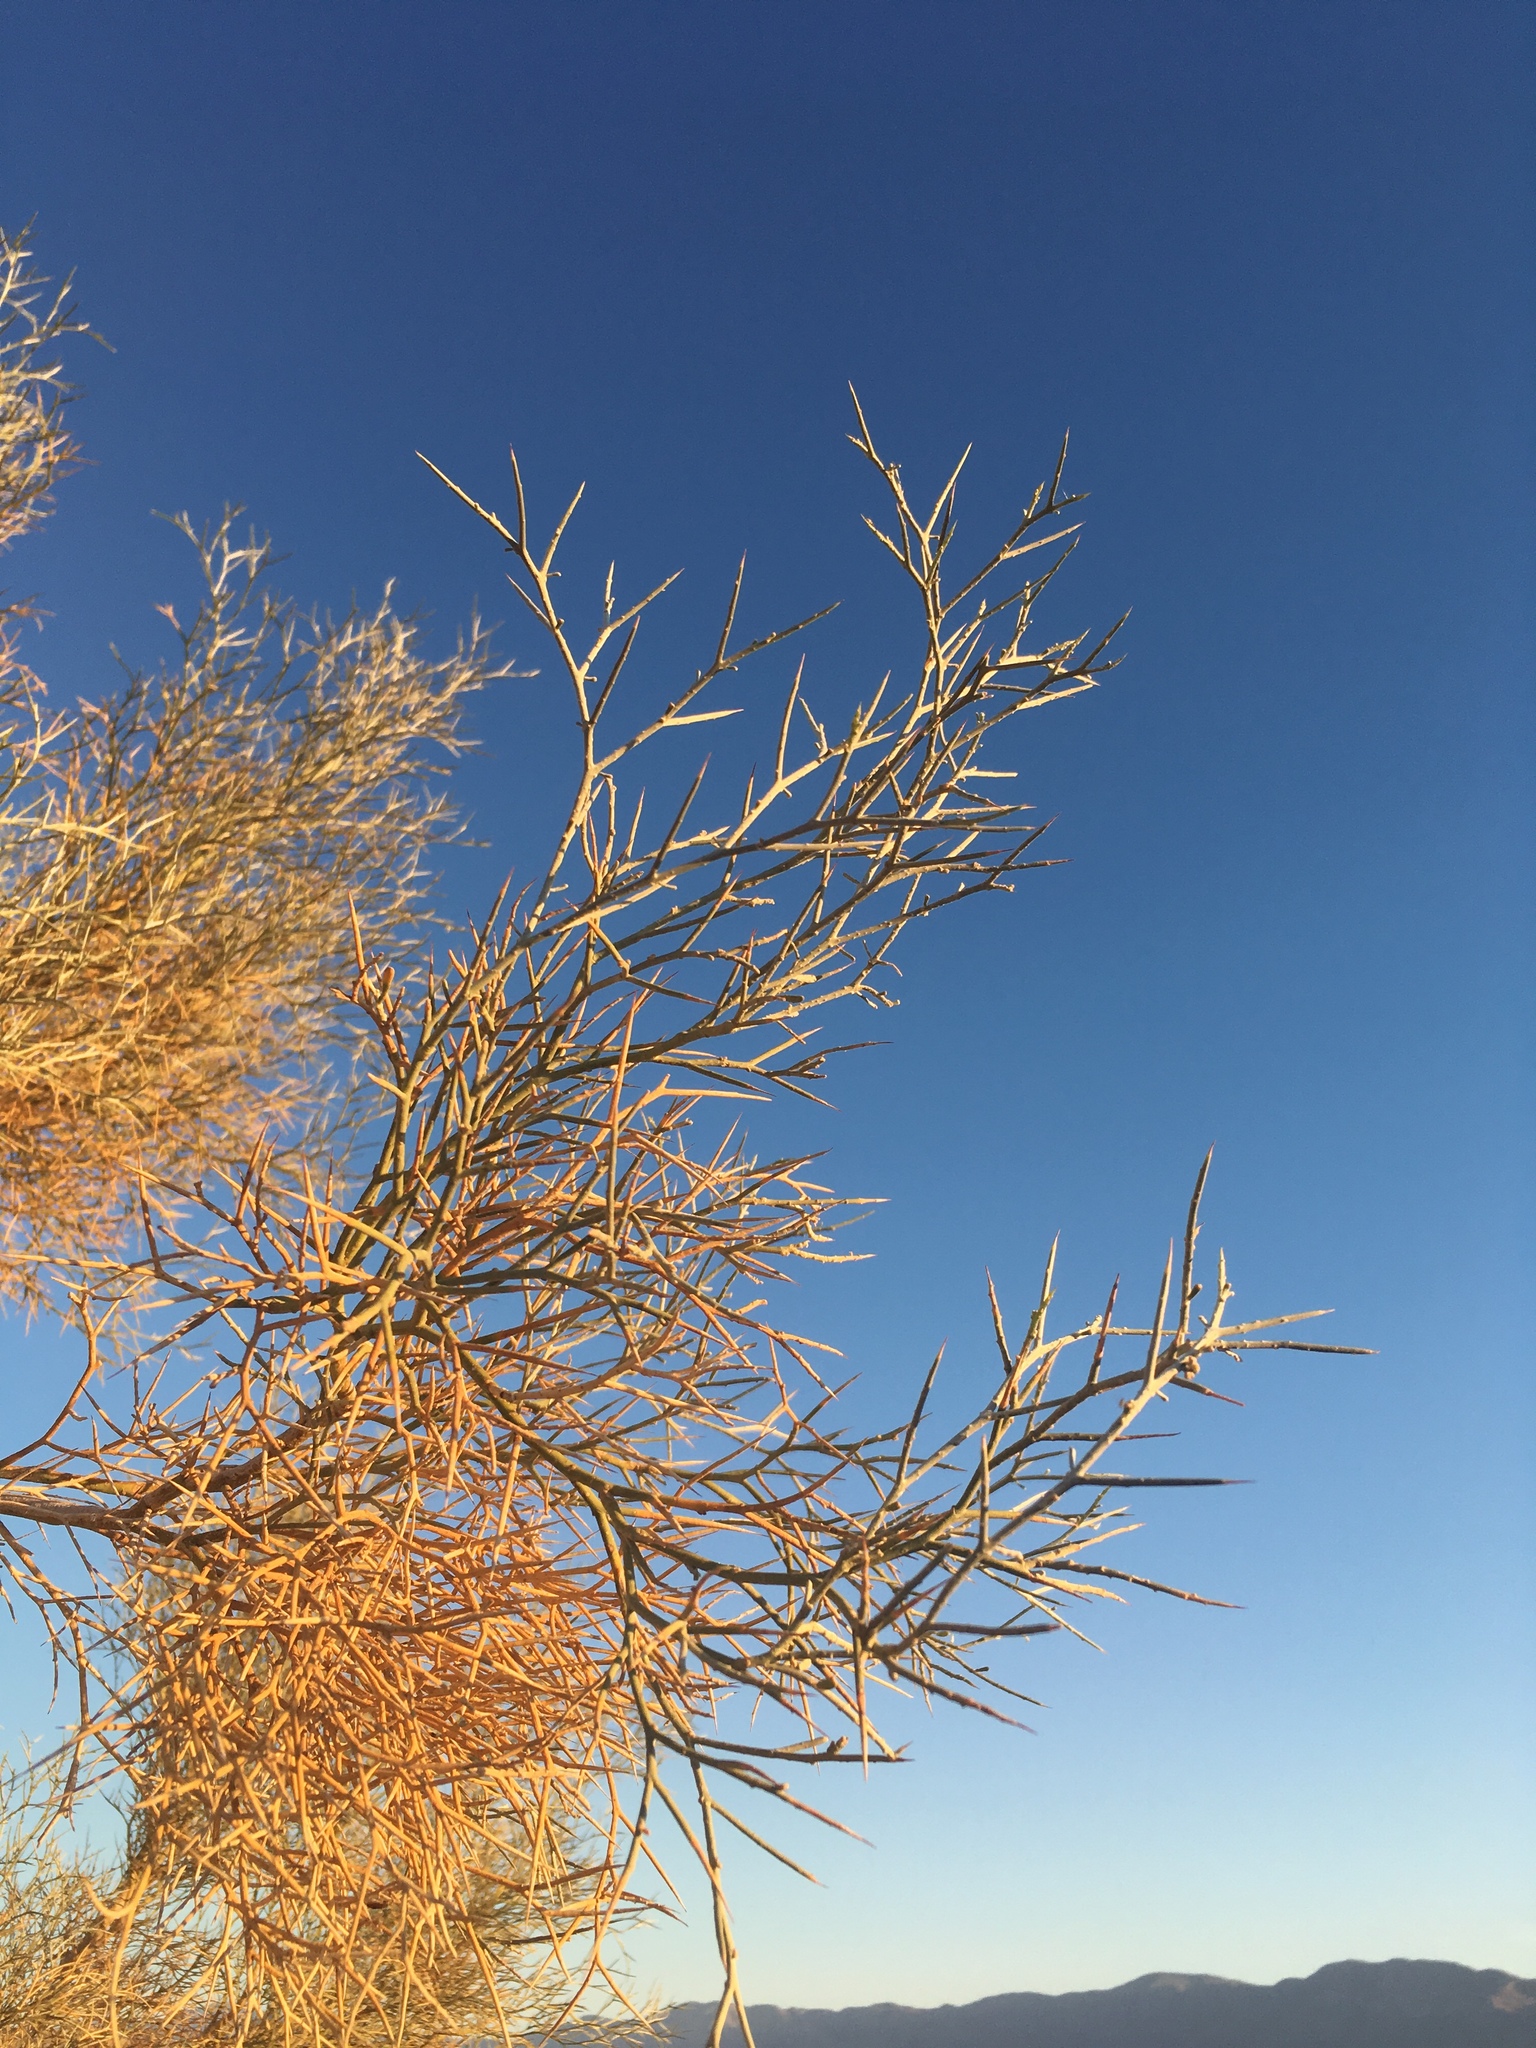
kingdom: Plantae
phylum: Tracheophyta
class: Magnoliopsida
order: Fabales
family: Fabaceae
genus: Psorothamnus
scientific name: Psorothamnus spinosus
